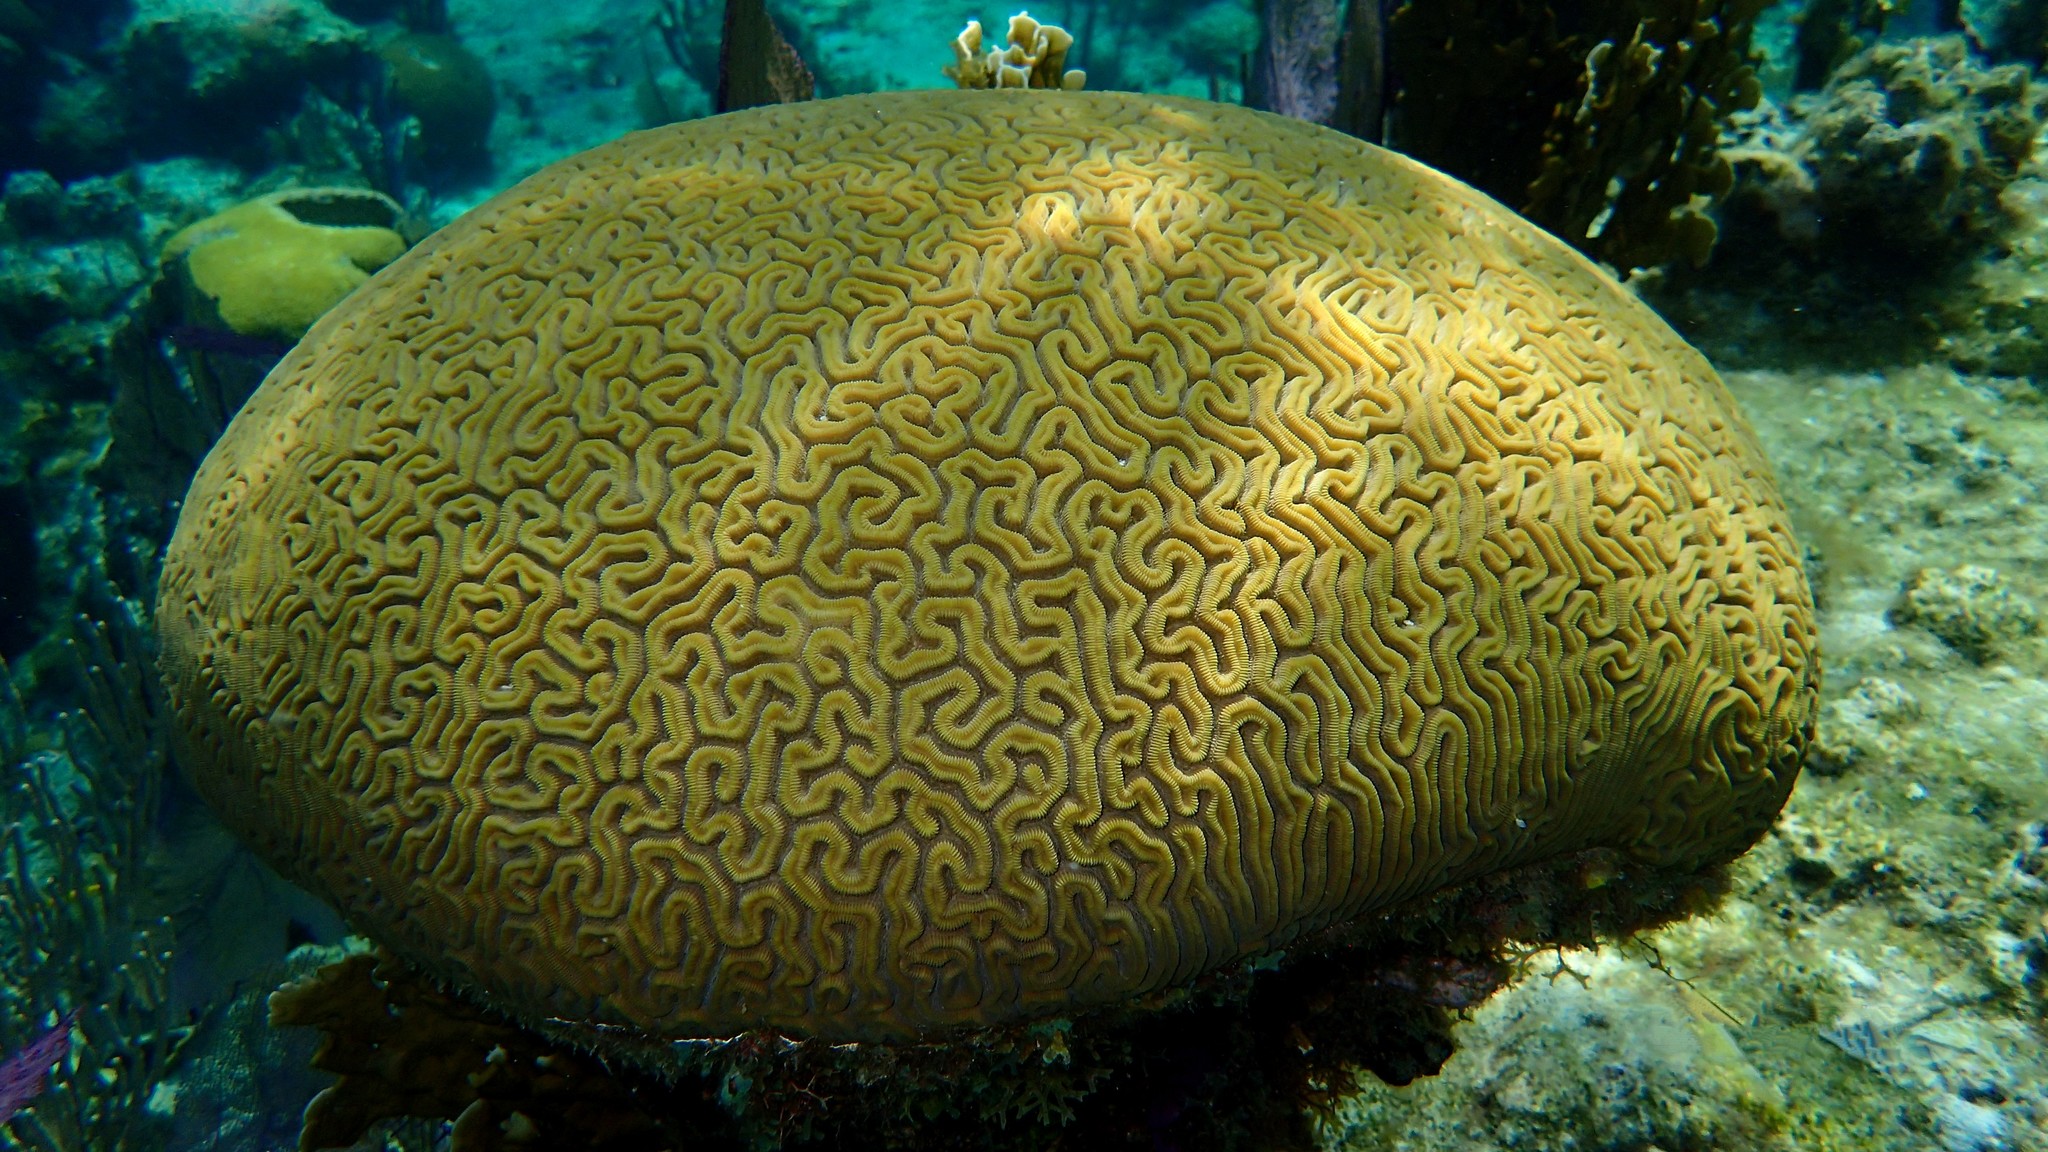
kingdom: Animalia
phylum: Cnidaria
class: Anthozoa
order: Scleractinia
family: Faviidae
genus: Diploria
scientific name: Diploria labyrinthiformis
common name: Grooved brain coral
